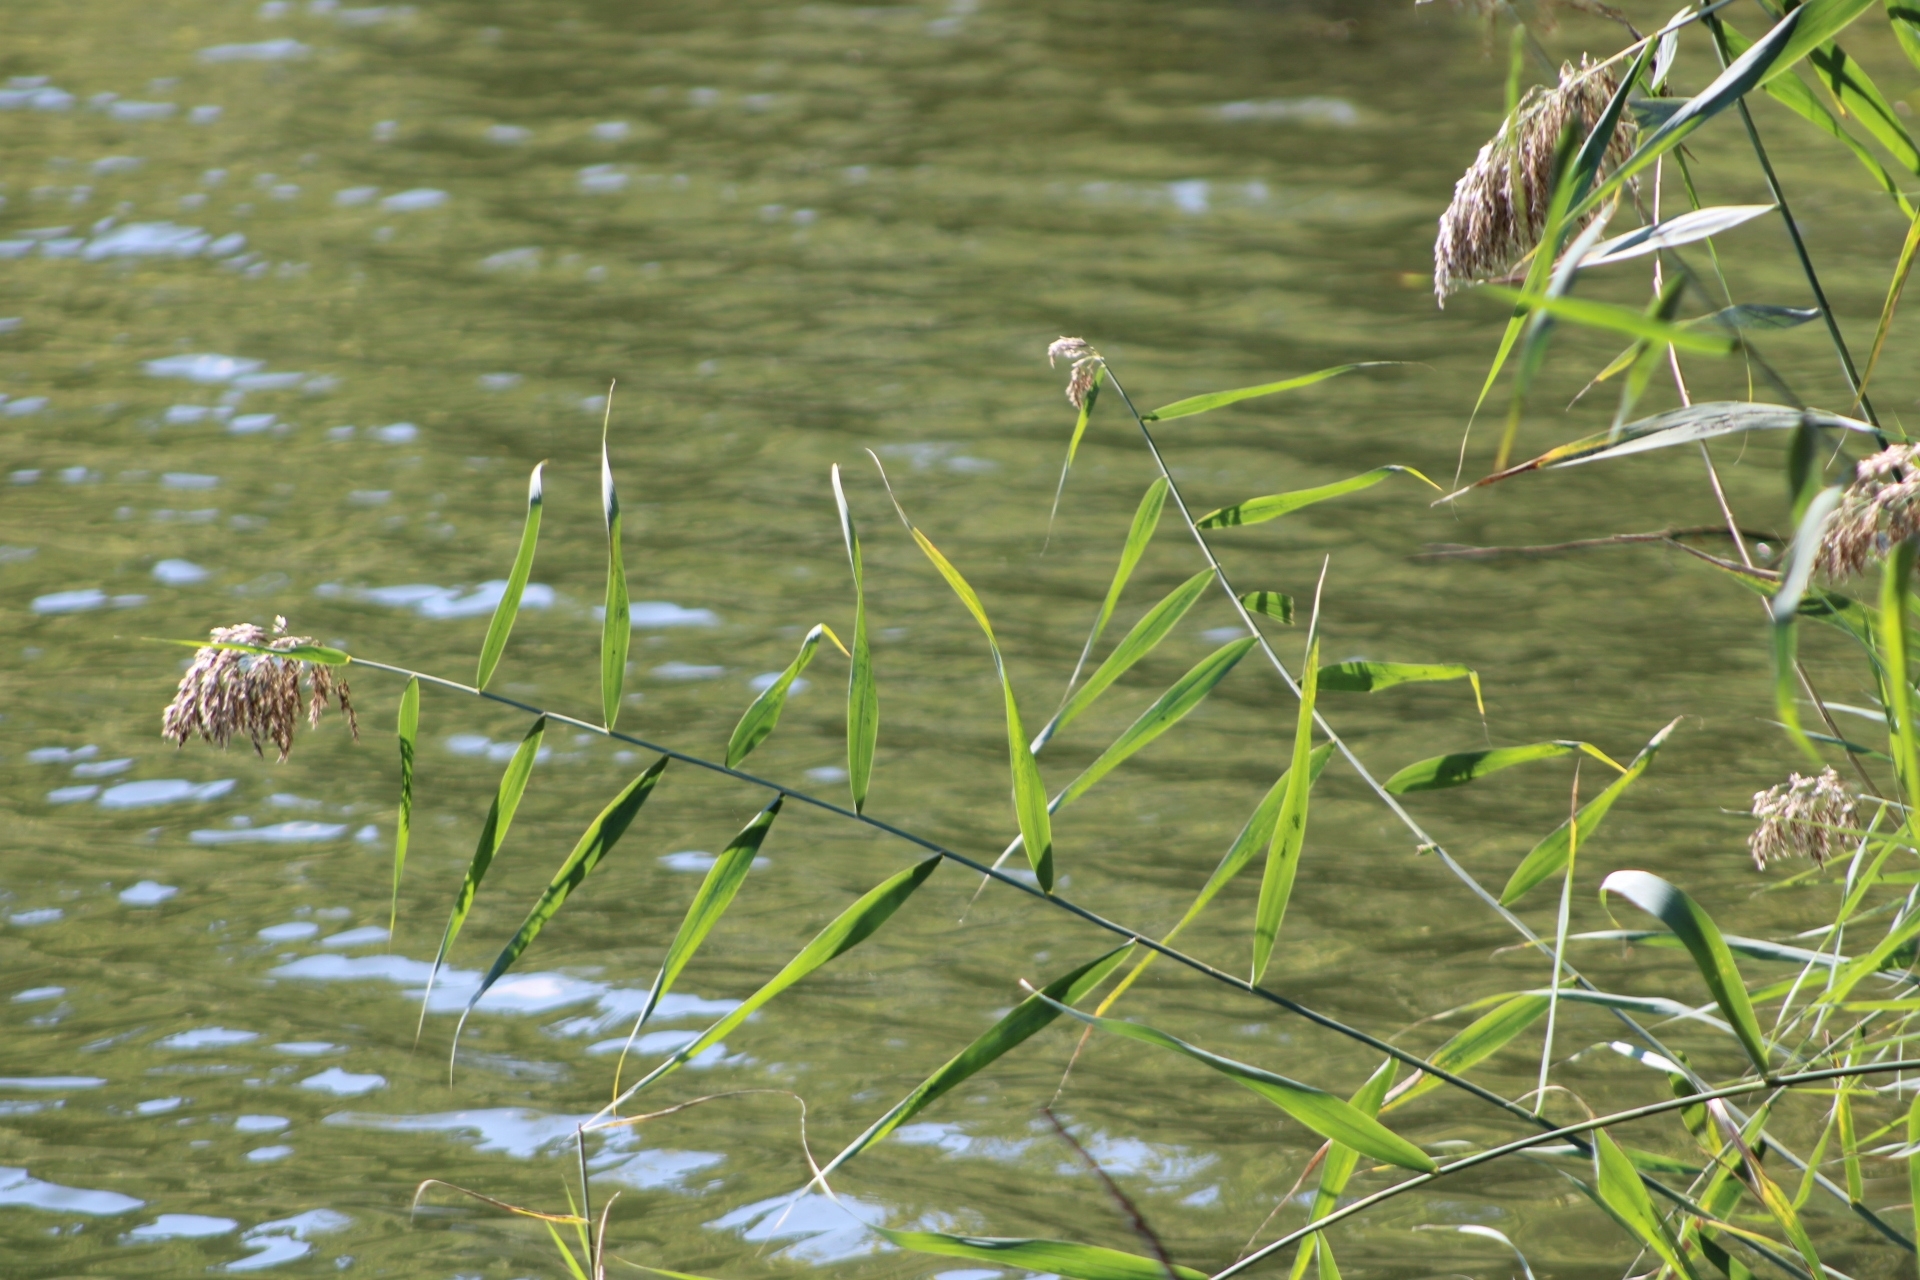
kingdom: Plantae
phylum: Tracheophyta
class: Liliopsida
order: Poales
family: Poaceae
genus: Phragmites
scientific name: Phragmites australis
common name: Common reed
